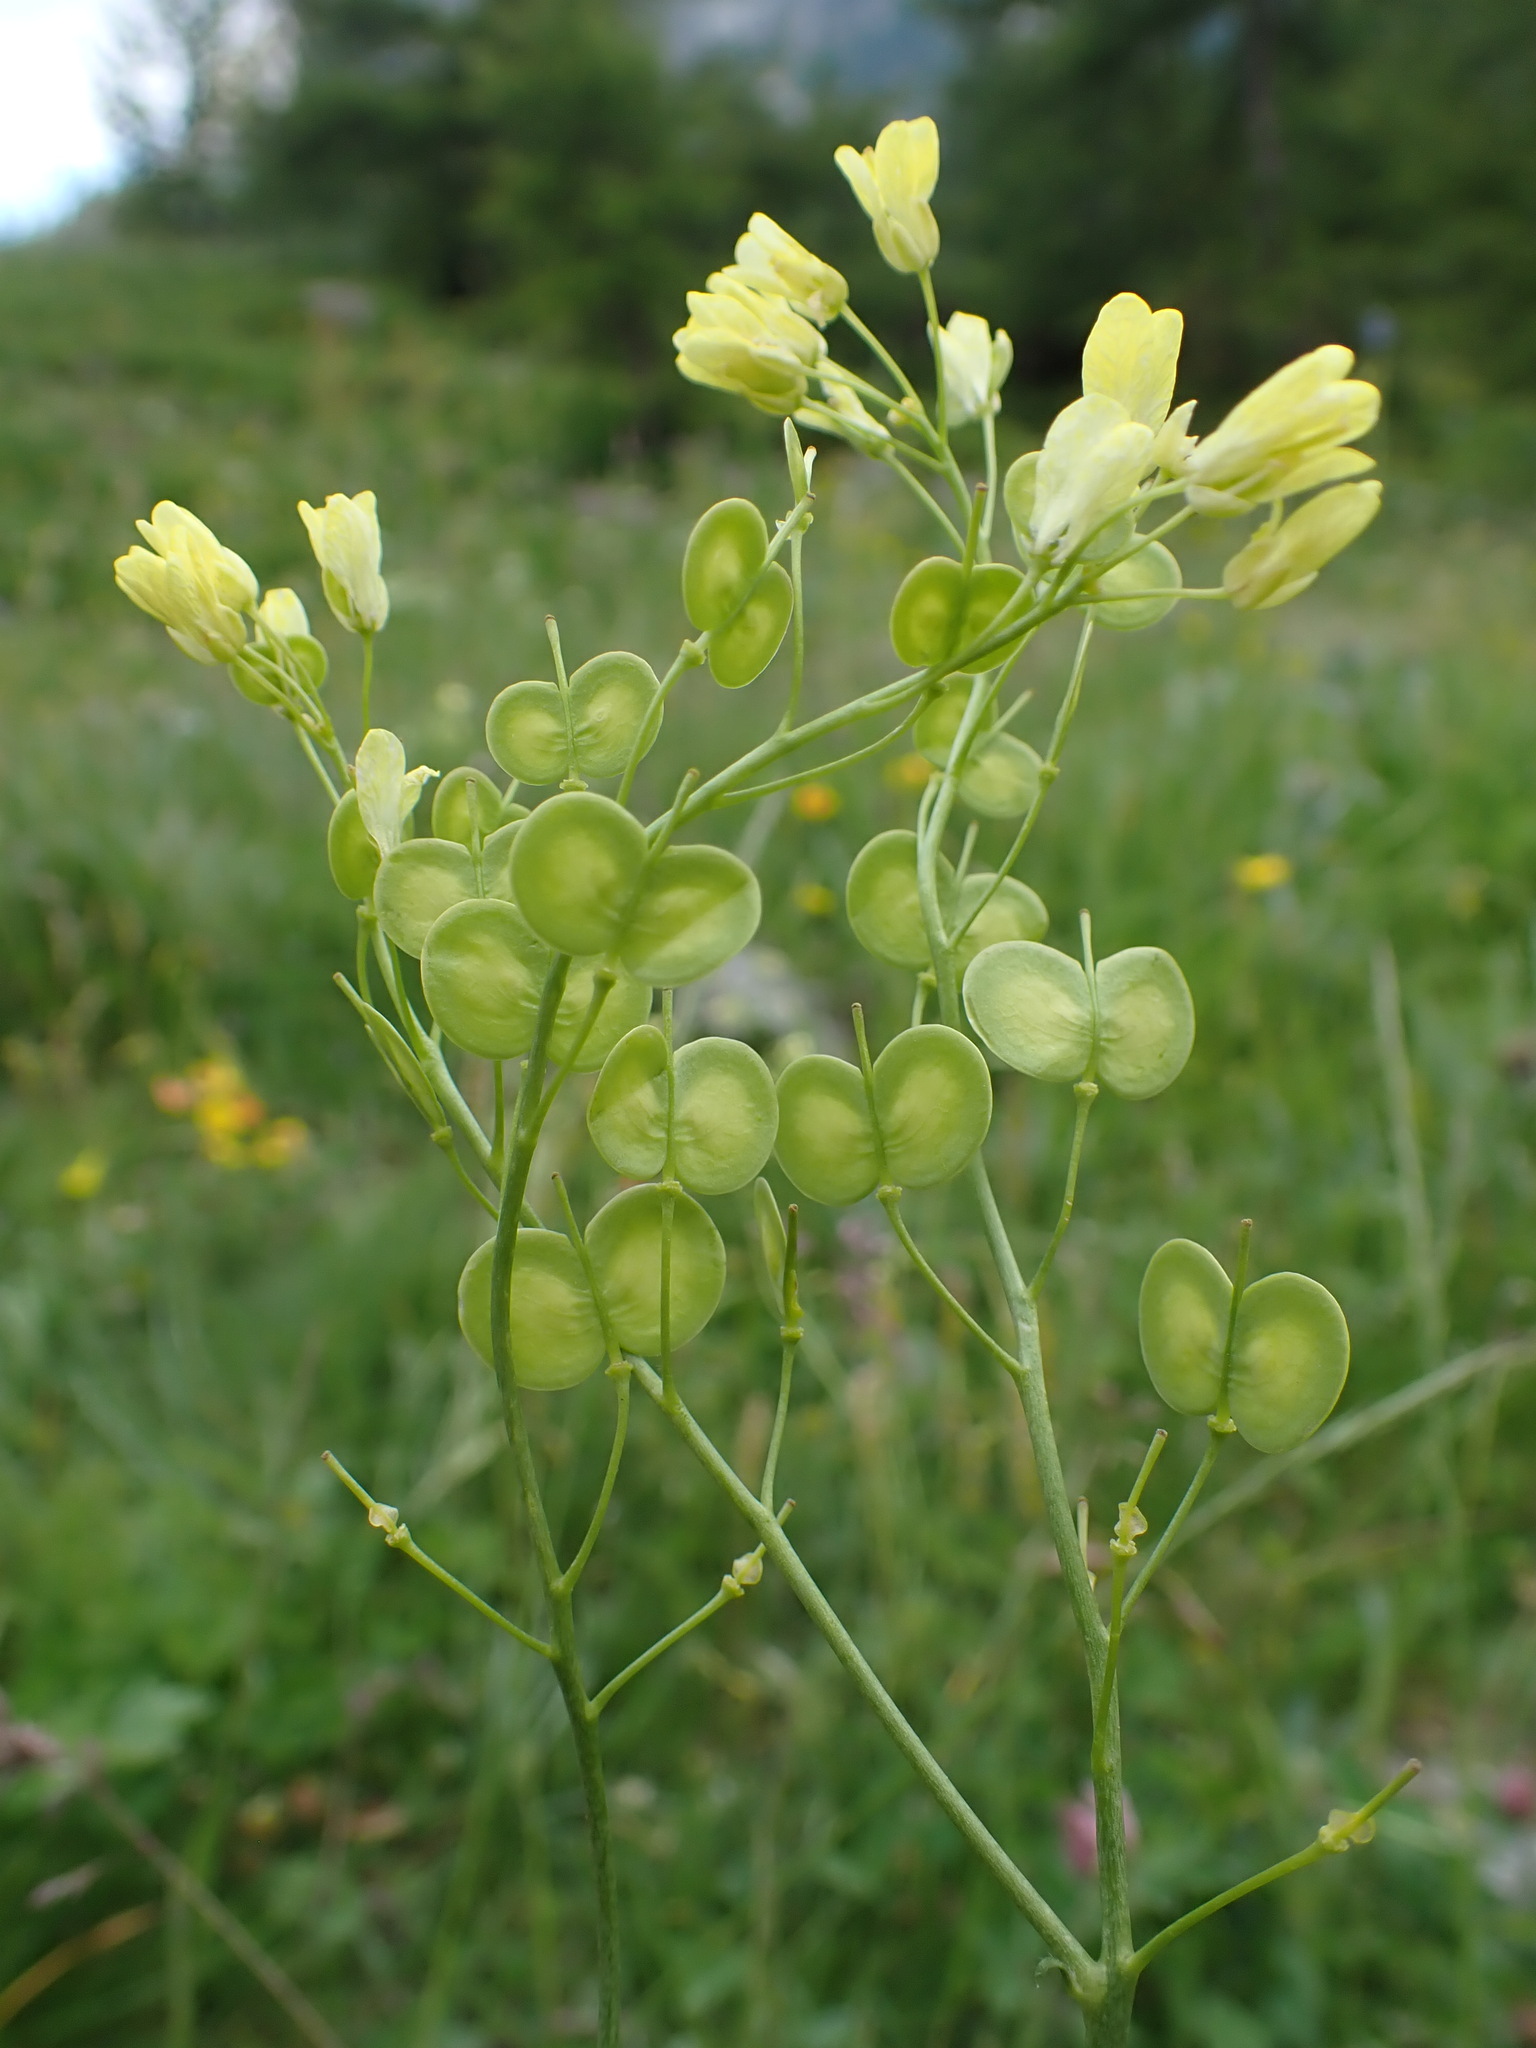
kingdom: Plantae
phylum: Tracheophyta
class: Magnoliopsida
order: Brassicales
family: Brassicaceae
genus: Biscutella
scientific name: Biscutella laevigata
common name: Buckler mustard
